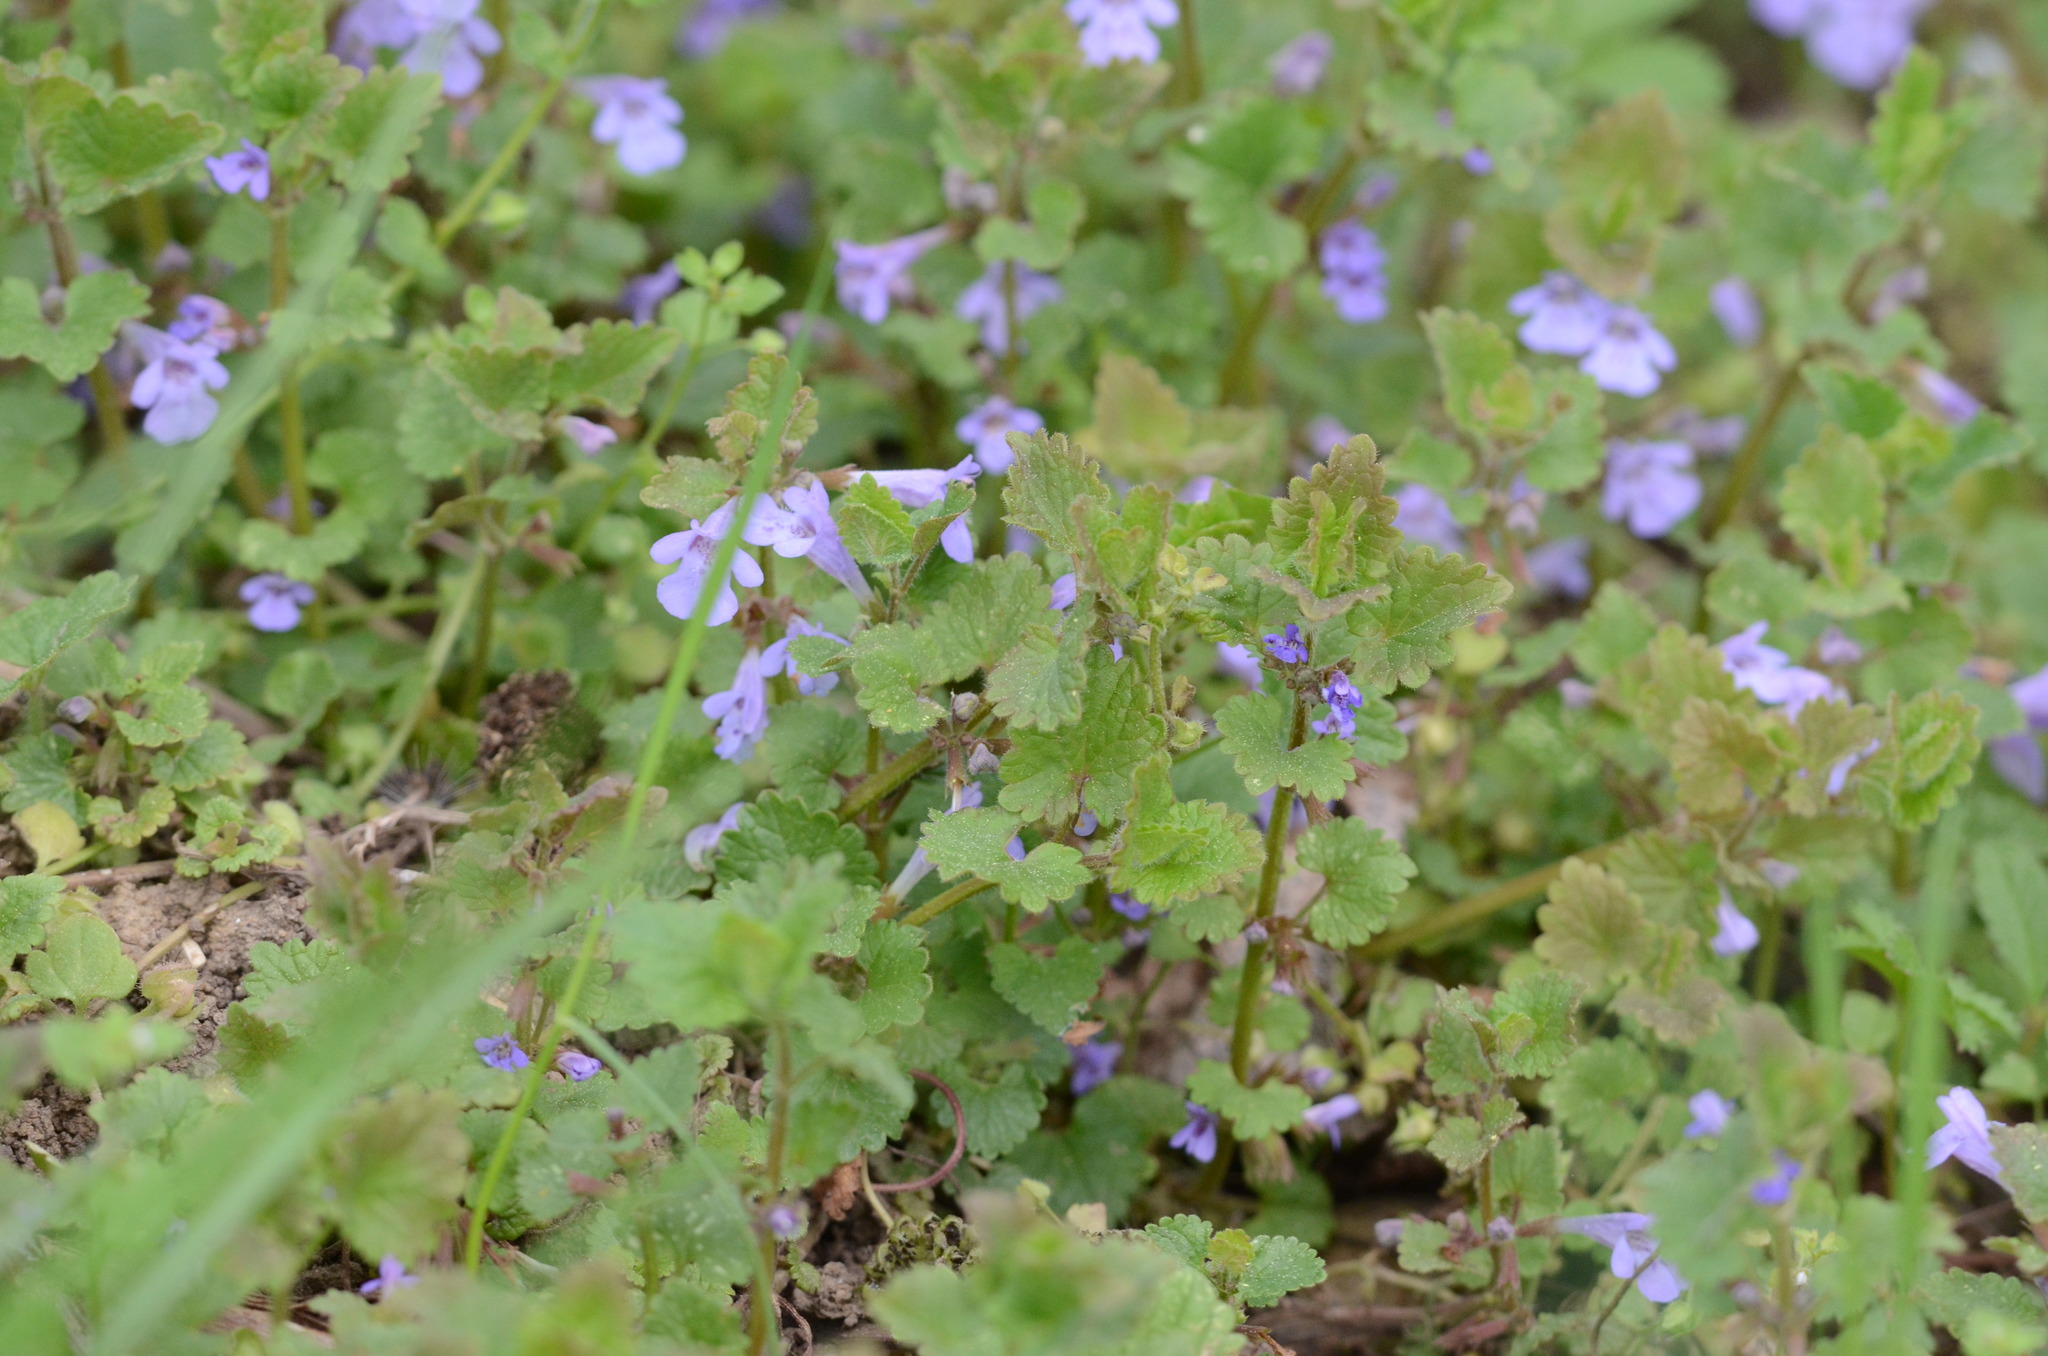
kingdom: Plantae
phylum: Tracheophyta
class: Magnoliopsida
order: Lamiales
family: Lamiaceae
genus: Glechoma
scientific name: Glechoma hederacea
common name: Ground ivy
